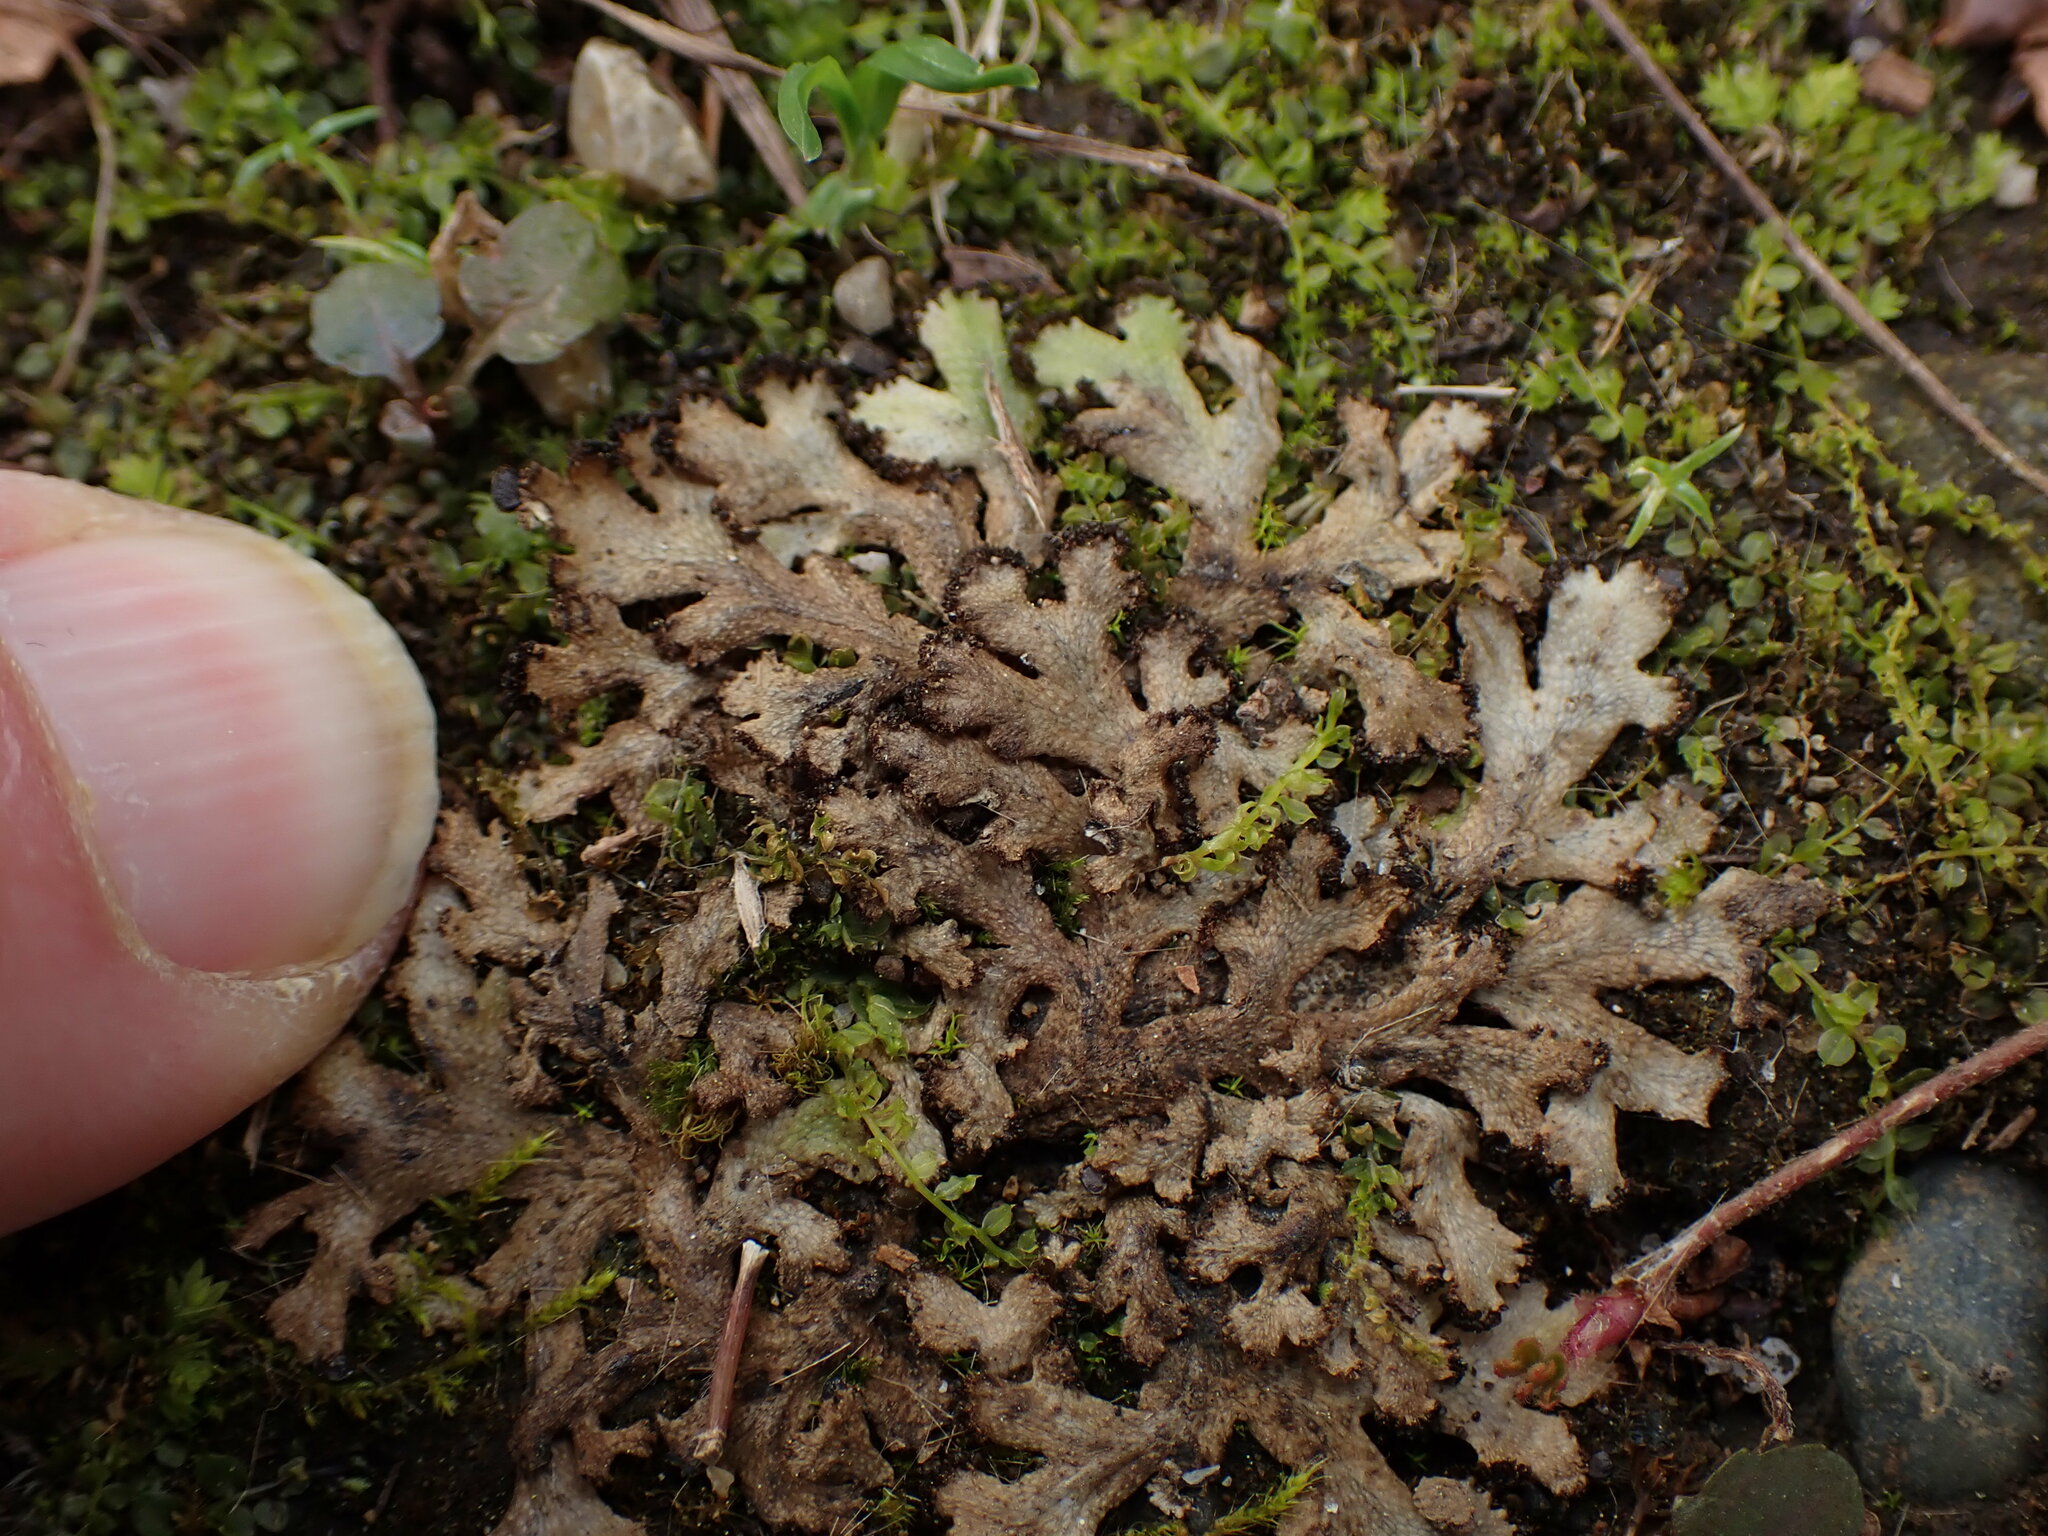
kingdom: Plantae
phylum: Marchantiophyta
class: Marchantiopsida
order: Marchantiales
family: Conocephalaceae
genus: Sandea
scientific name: Sandea japonica
